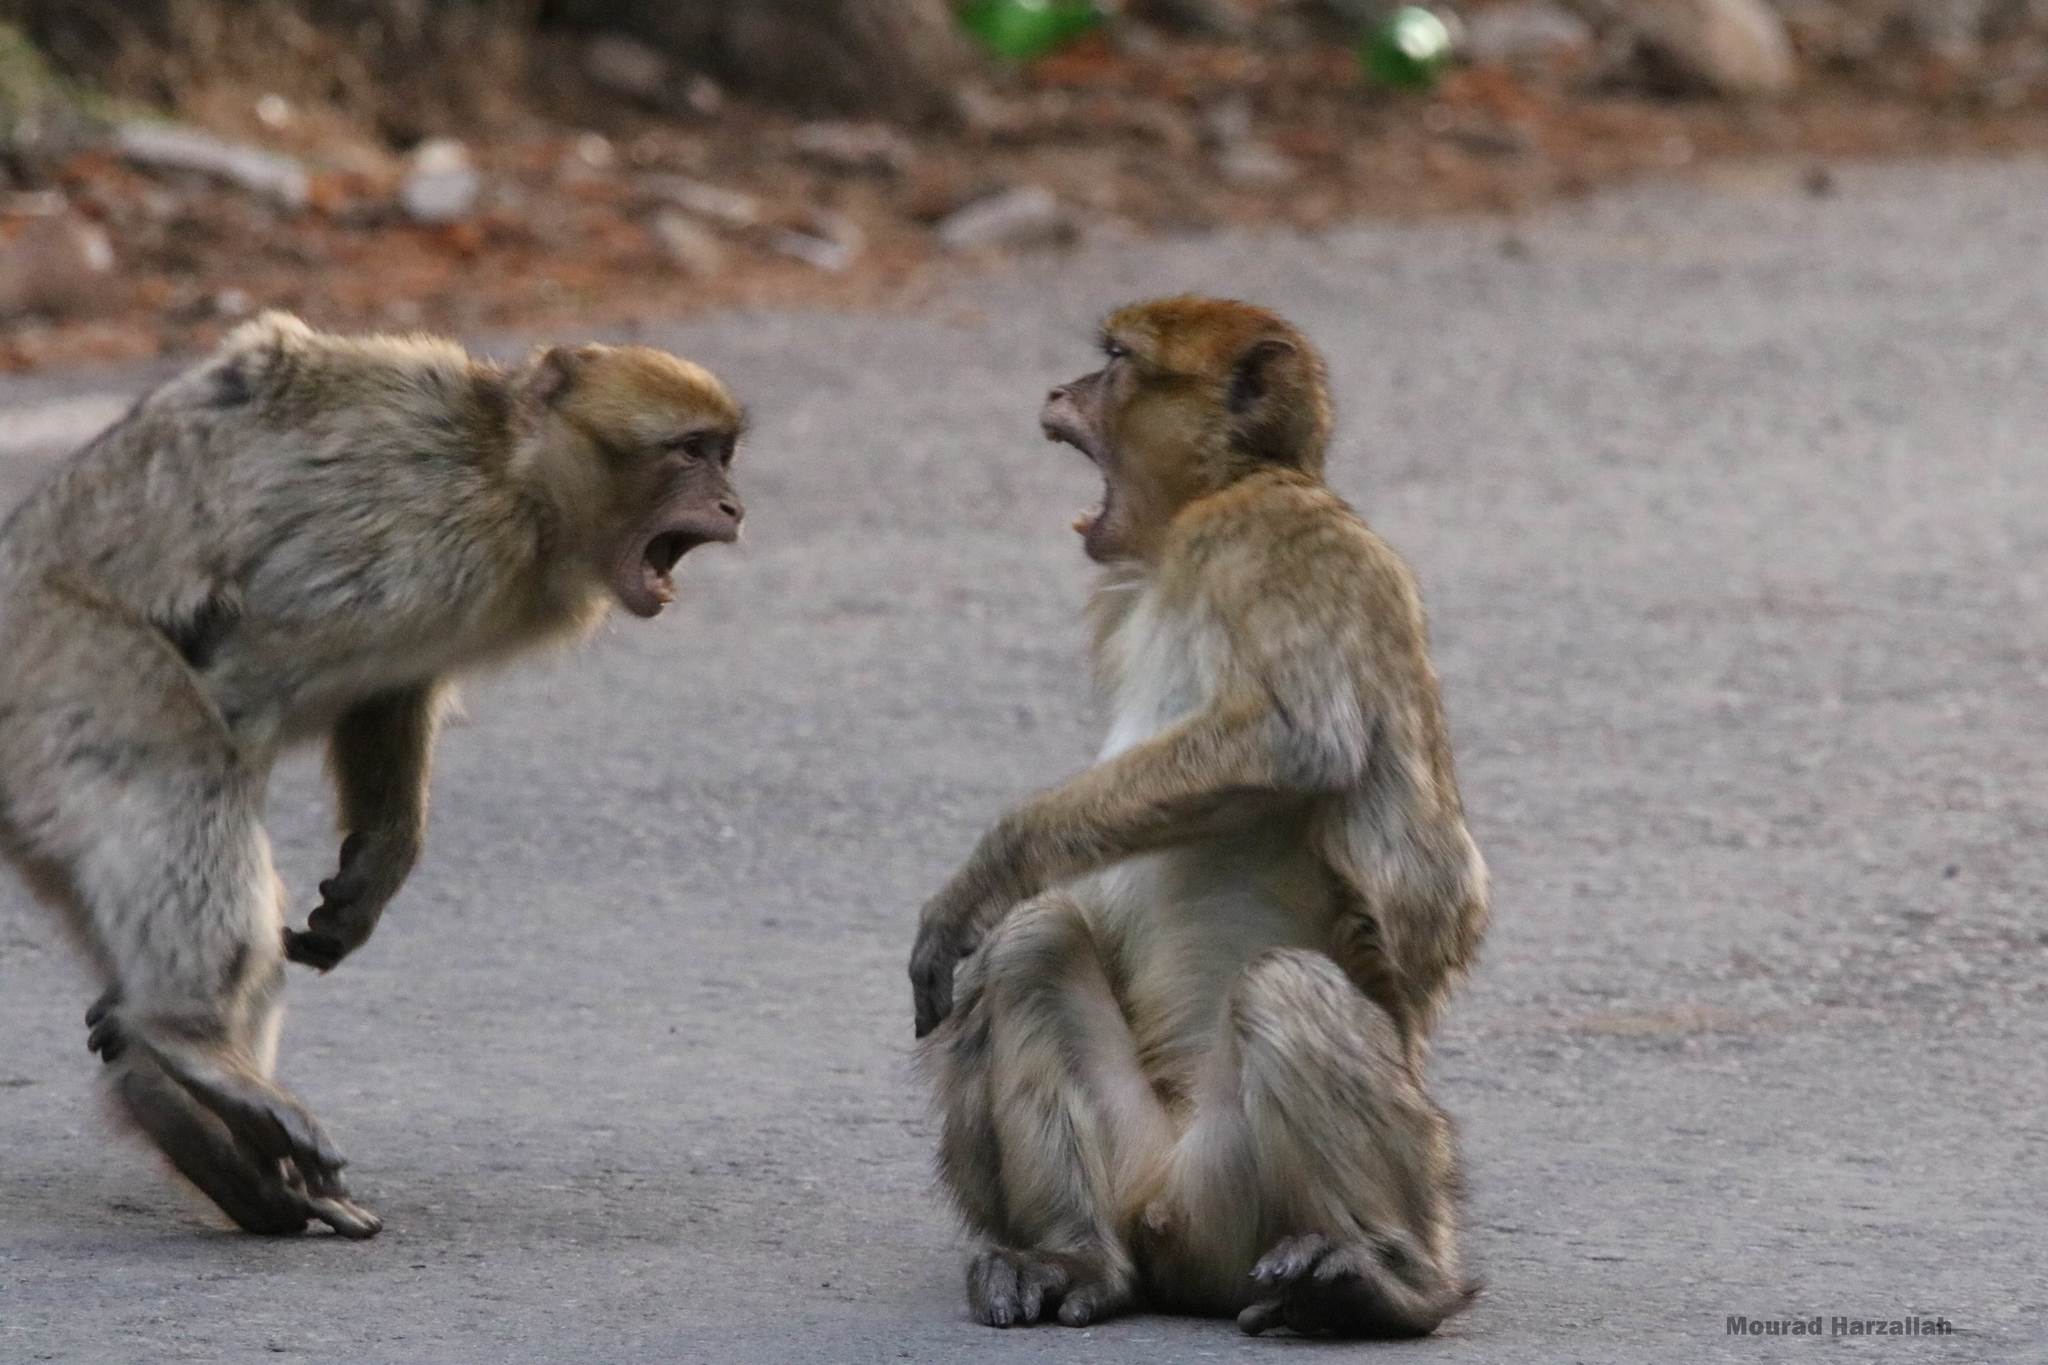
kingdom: Animalia
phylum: Chordata
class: Mammalia
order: Primates
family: Cercopithecidae
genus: Macaca
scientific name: Macaca sylvanus
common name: Barbary macaque
